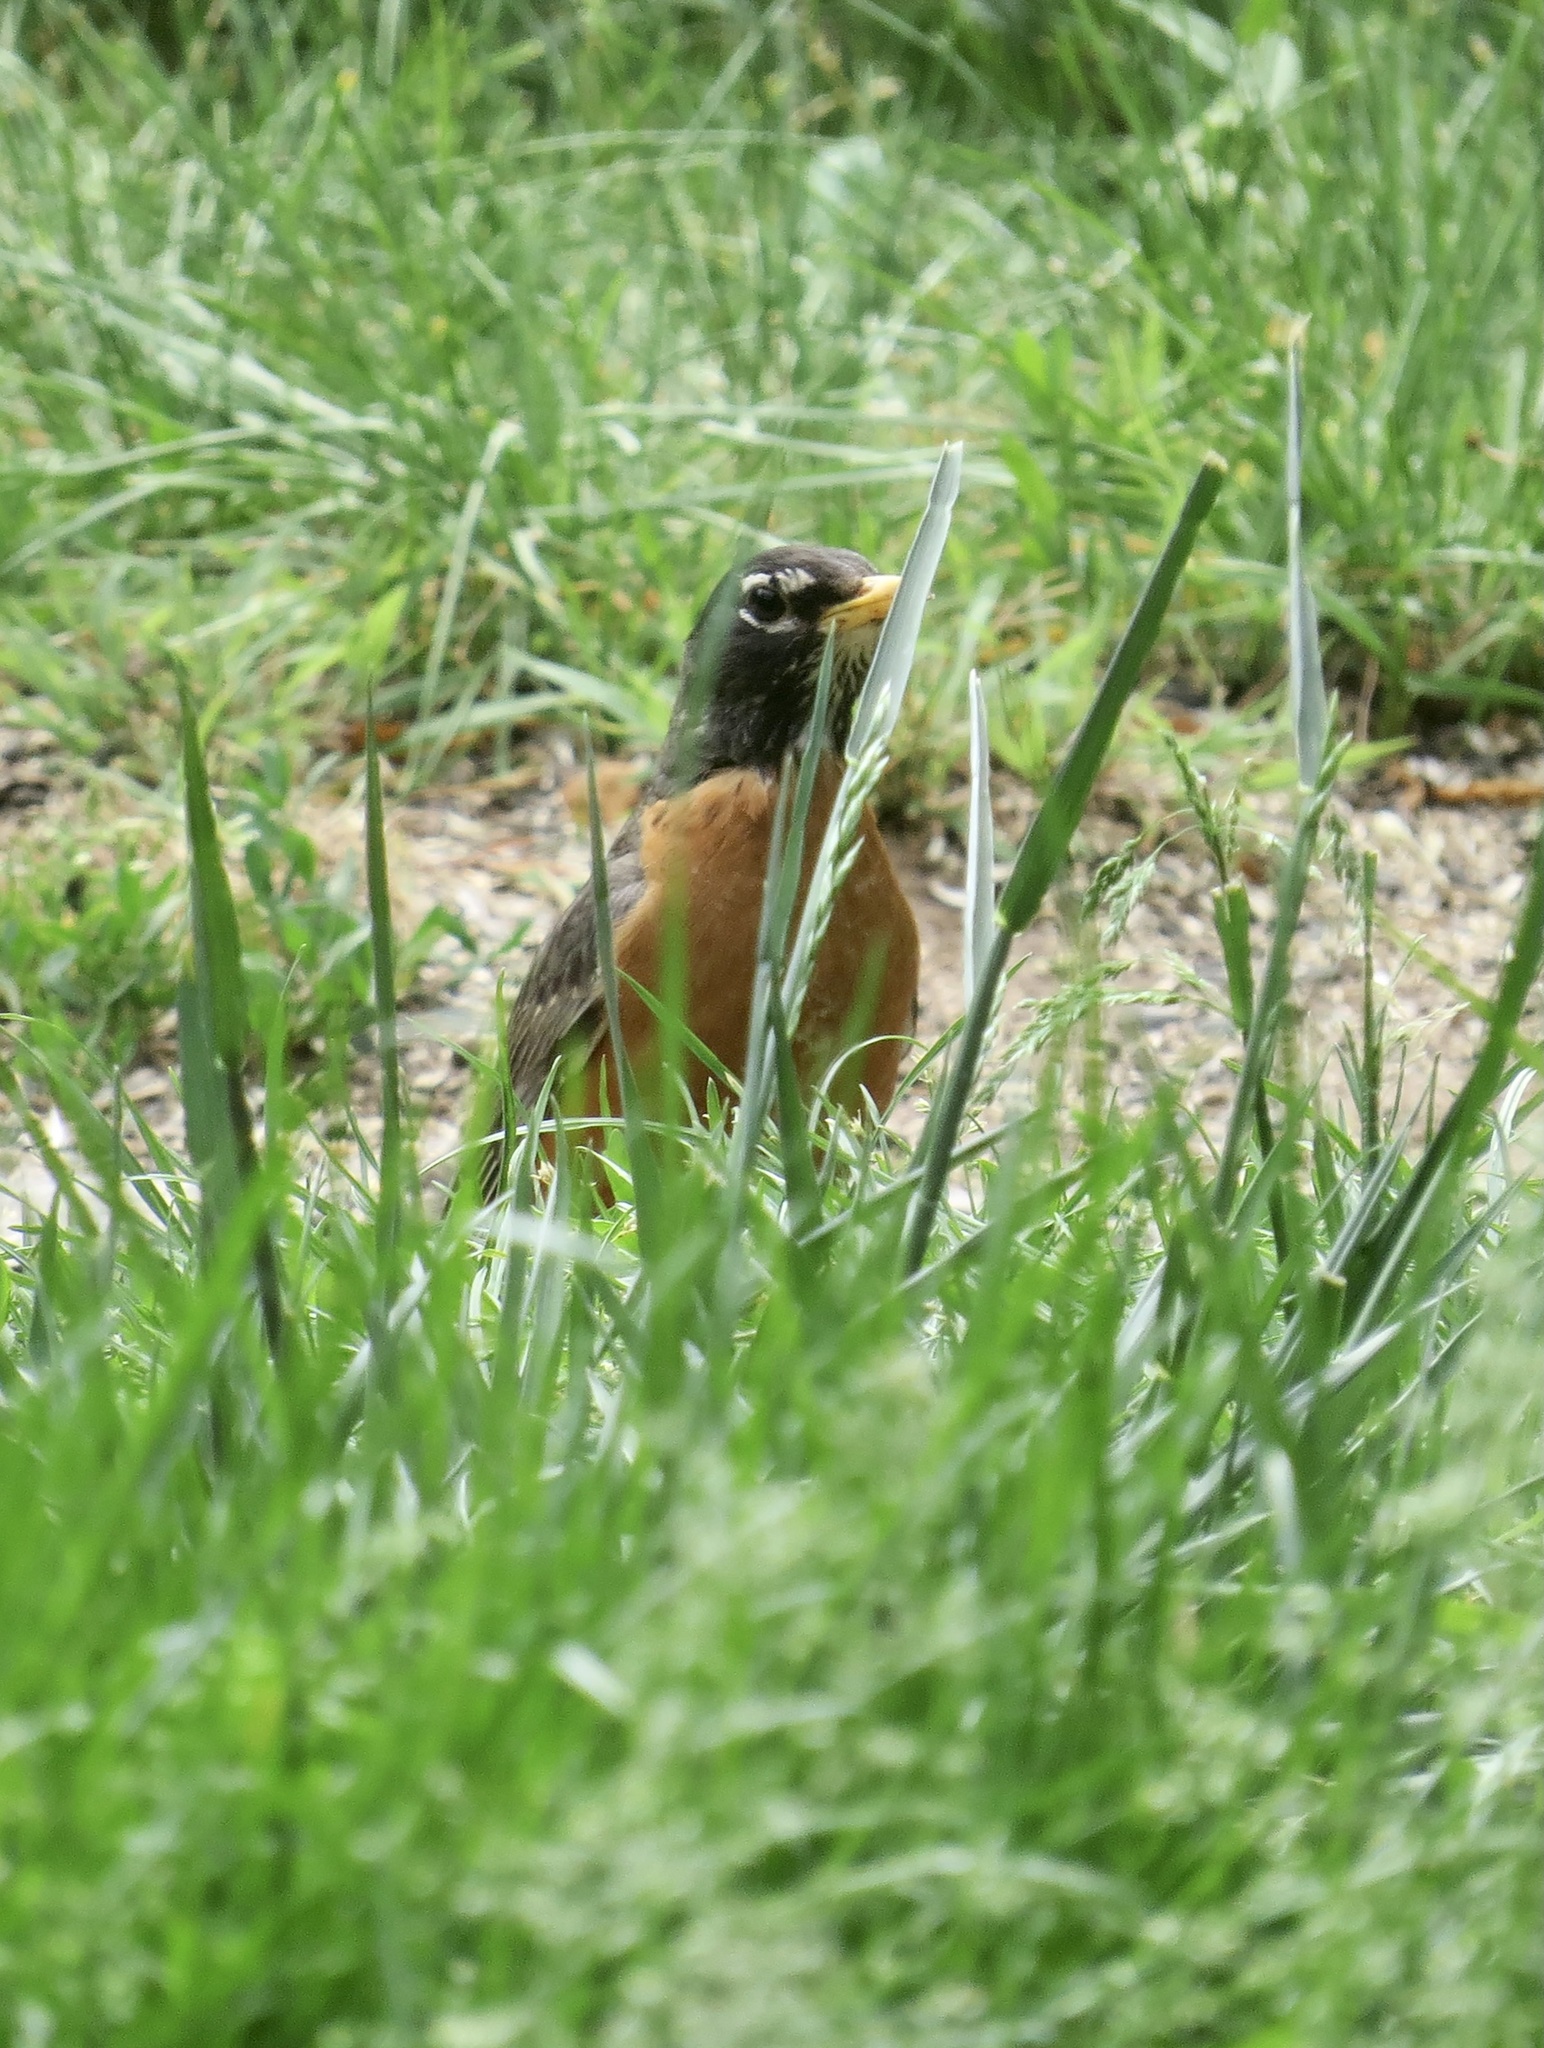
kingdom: Animalia
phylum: Chordata
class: Aves
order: Passeriformes
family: Turdidae
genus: Turdus
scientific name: Turdus migratorius
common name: American robin
